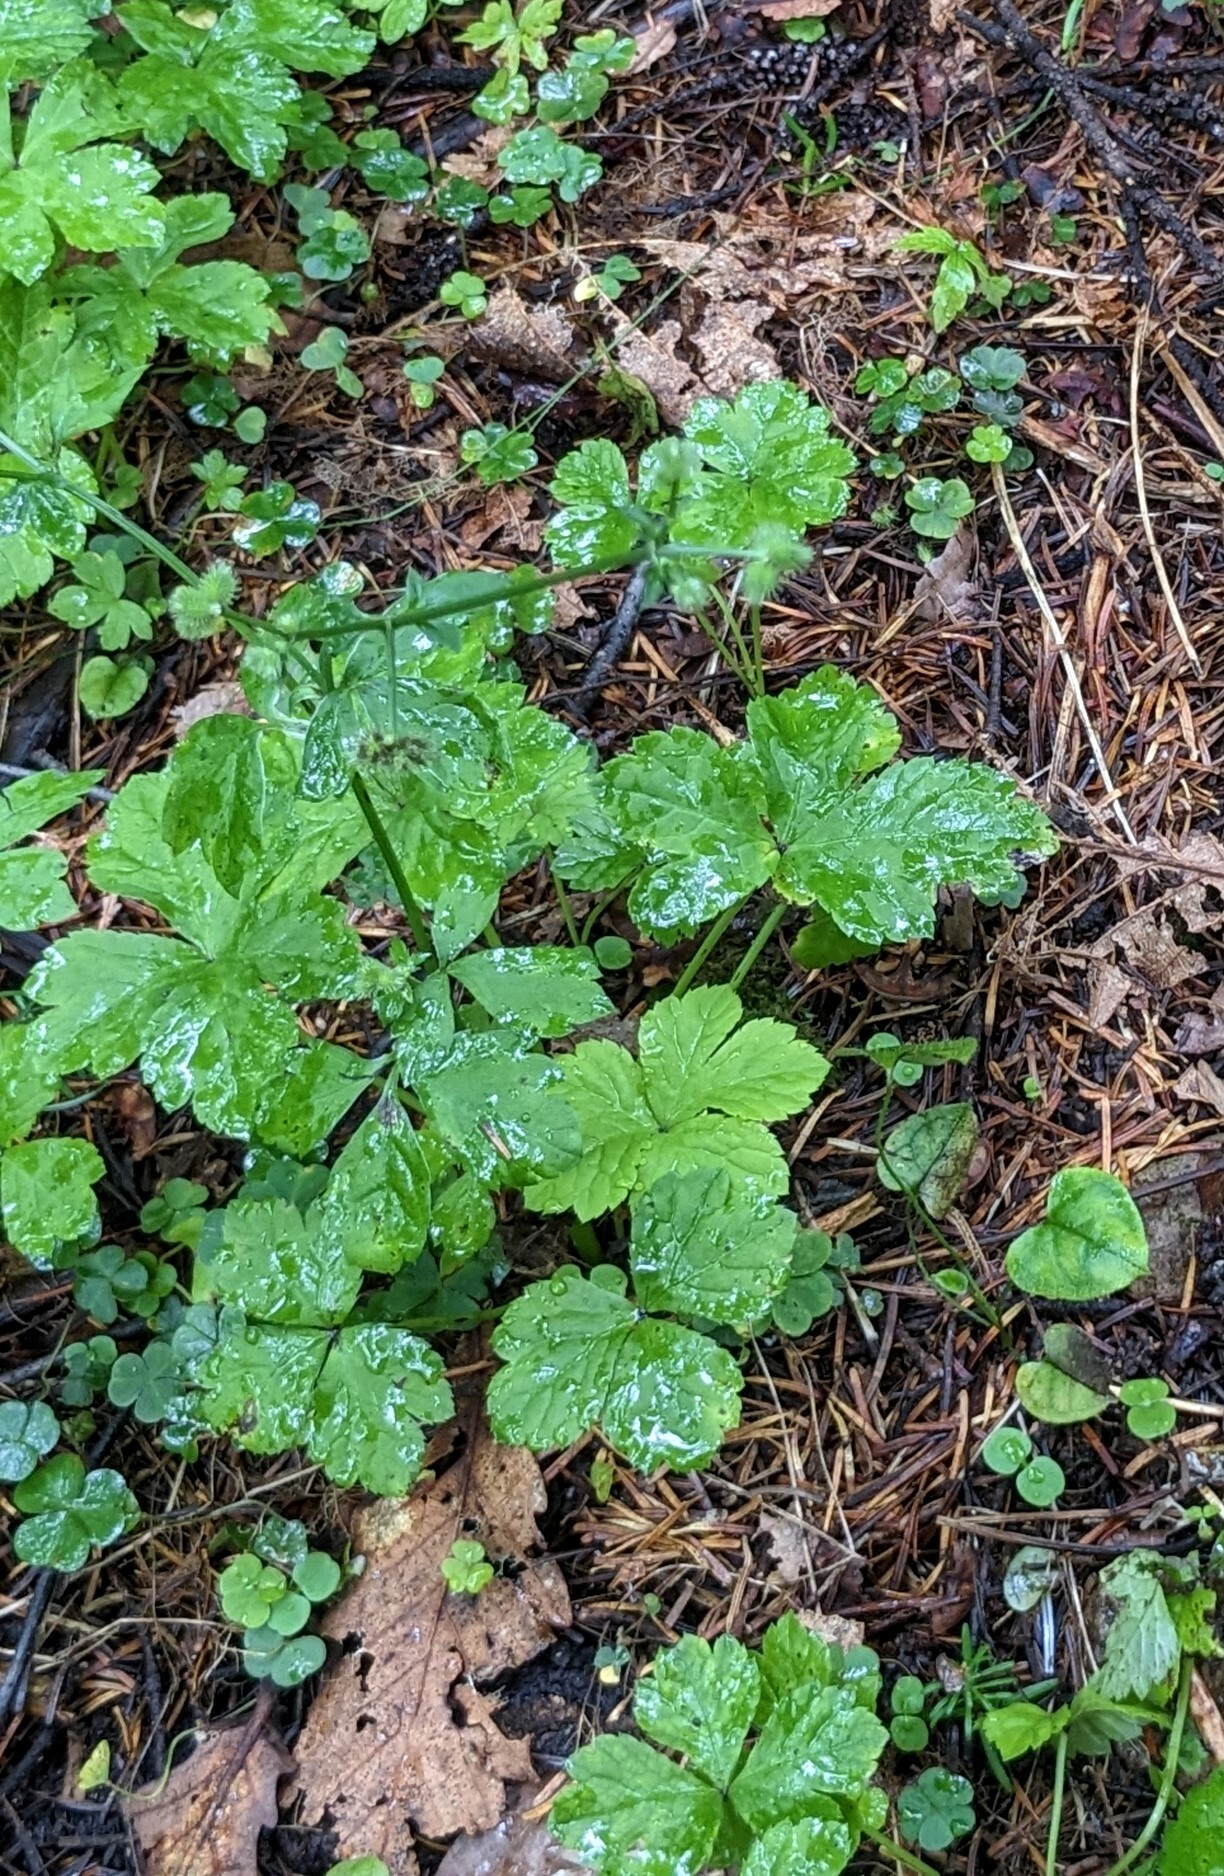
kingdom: Plantae
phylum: Tracheophyta
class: Magnoliopsida
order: Apiales
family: Apiaceae
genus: Sanicula
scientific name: Sanicula chinensis
